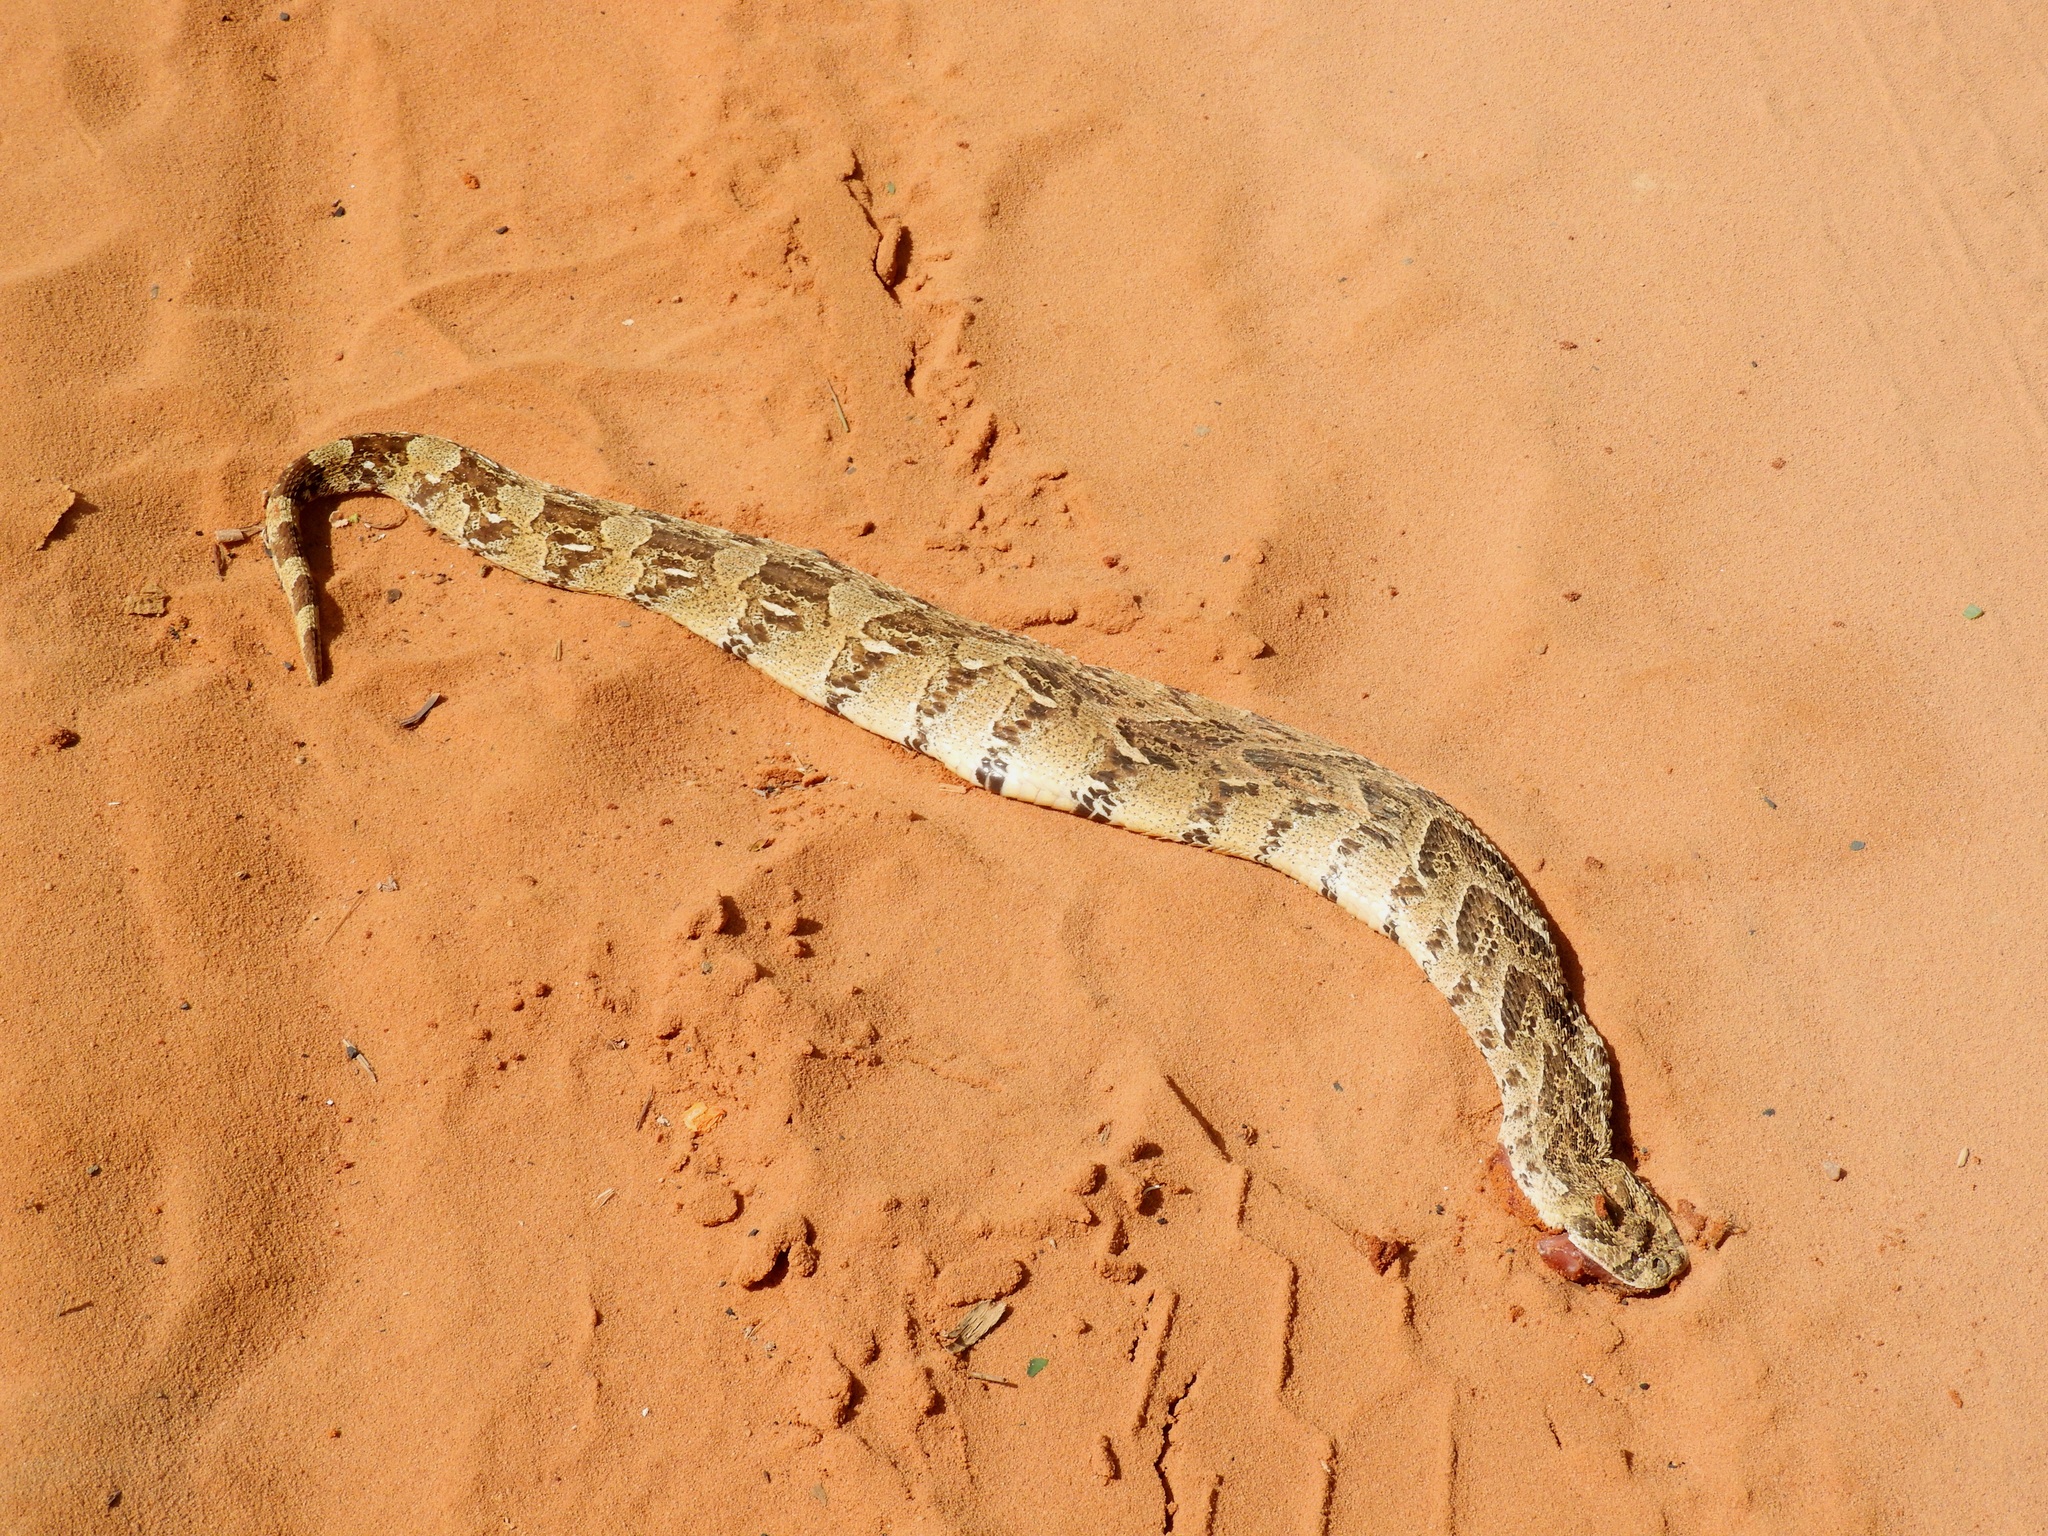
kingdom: Animalia
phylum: Chordata
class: Squamata
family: Viperidae
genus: Bitis
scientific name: Bitis arietans
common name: Puff adder
